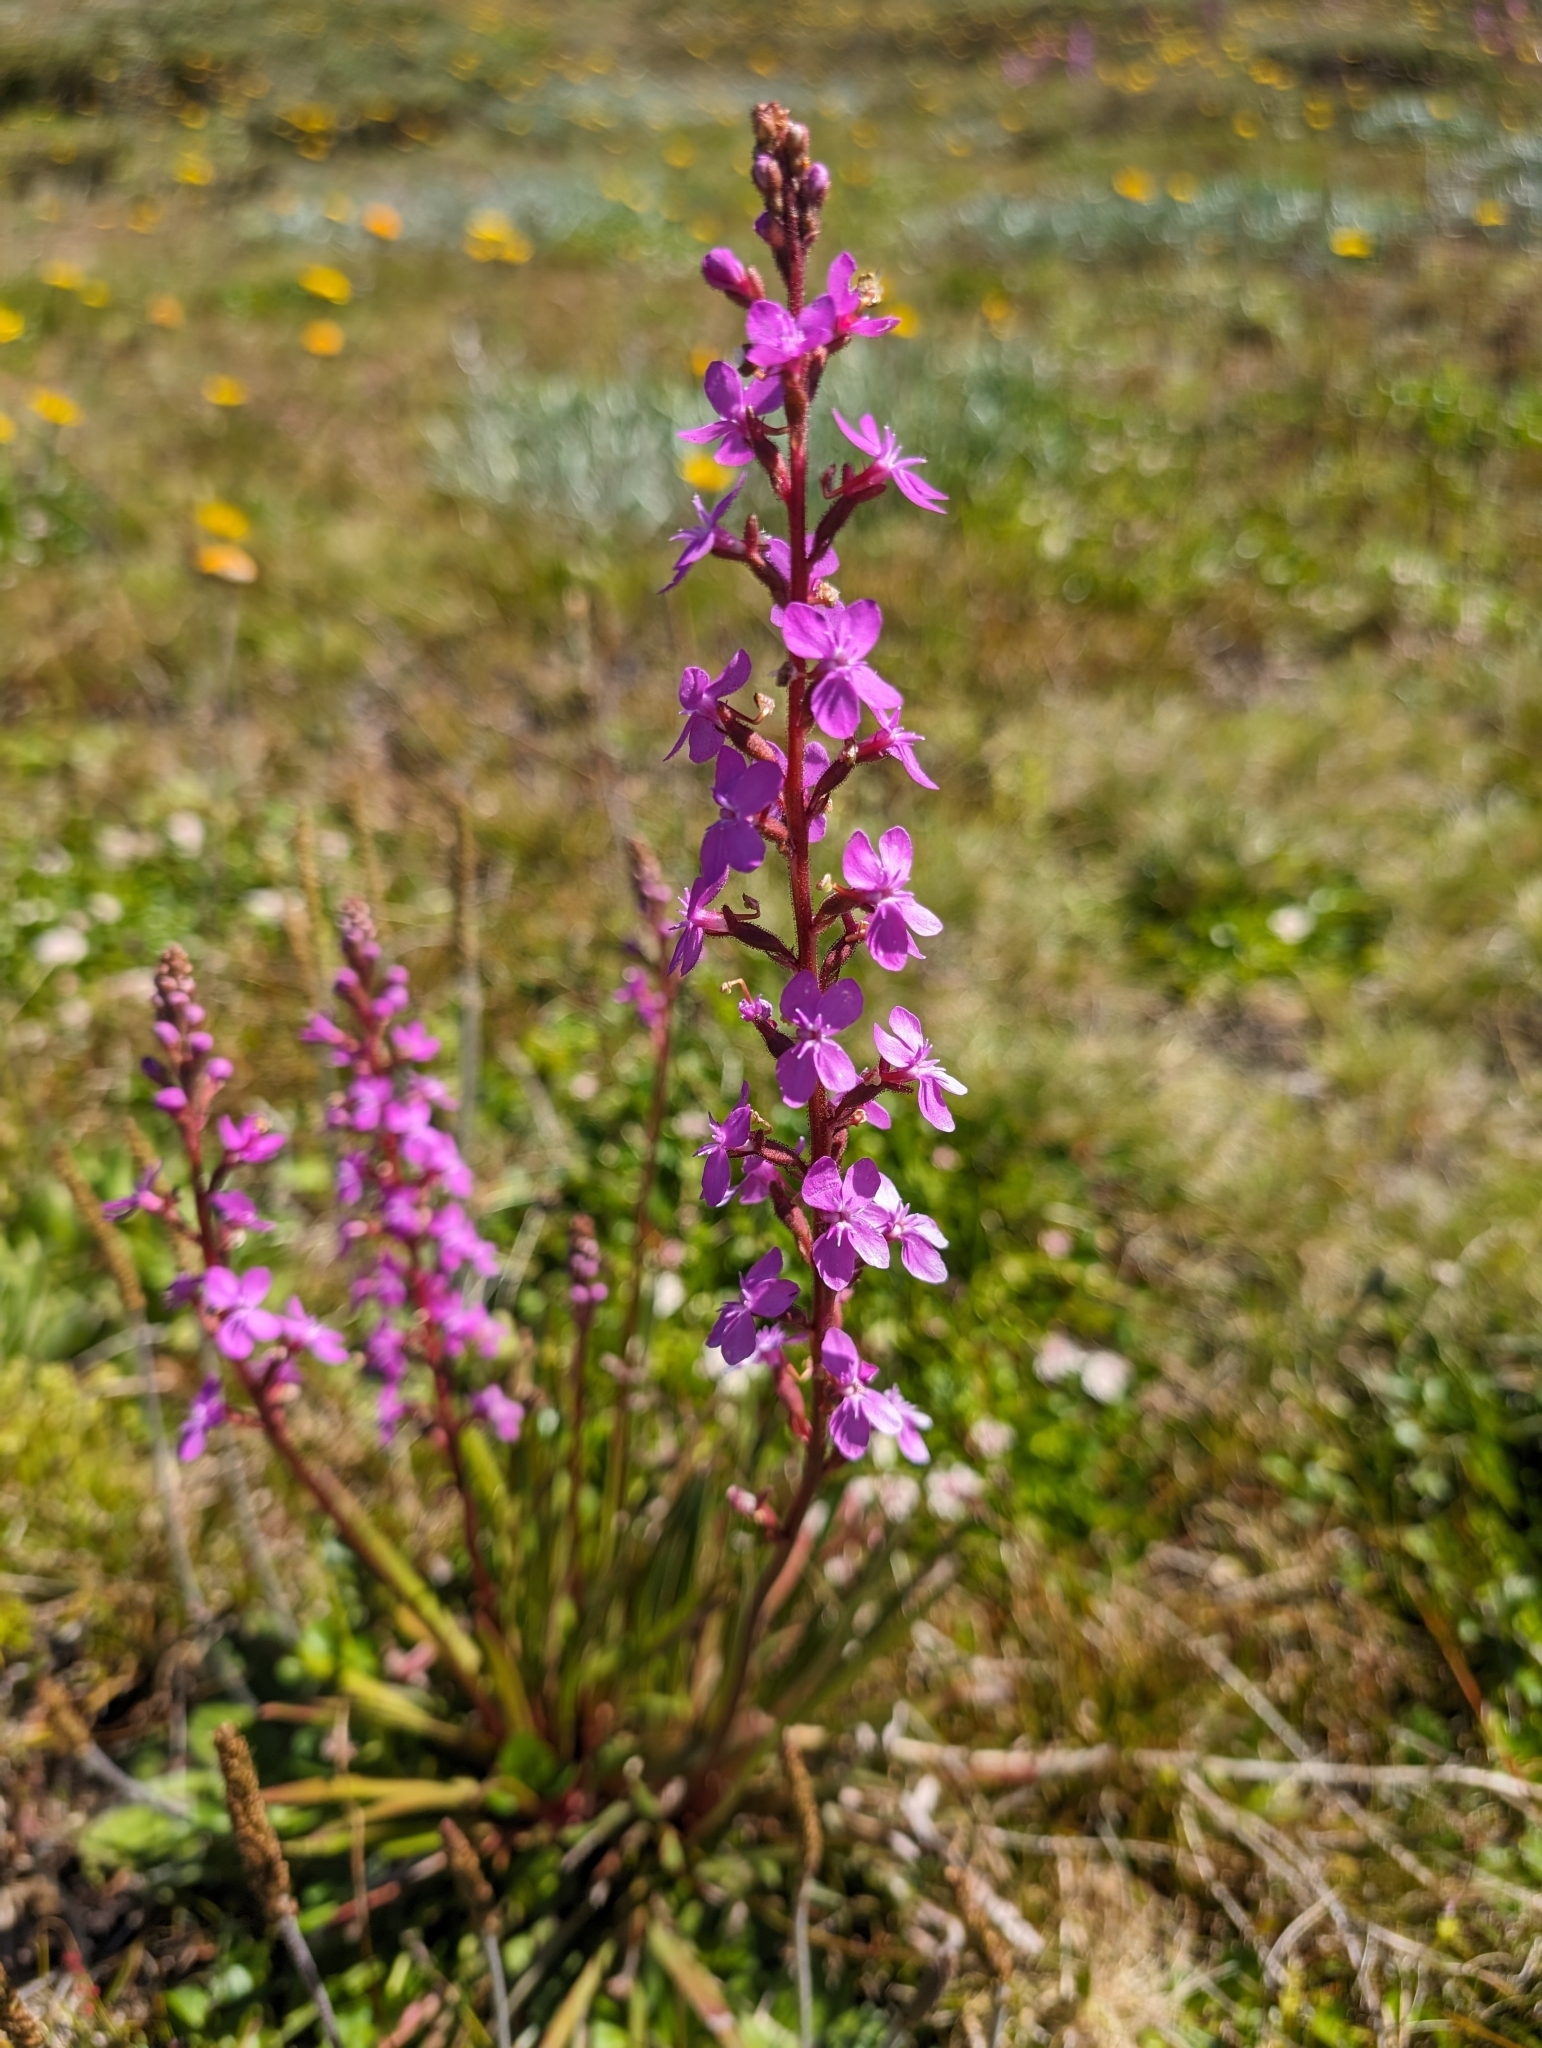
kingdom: Plantae
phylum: Tracheophyta
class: Magnoliopsida
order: Asterales
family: Stylidiaceae
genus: Stylidium
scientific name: Stylidium armeria
